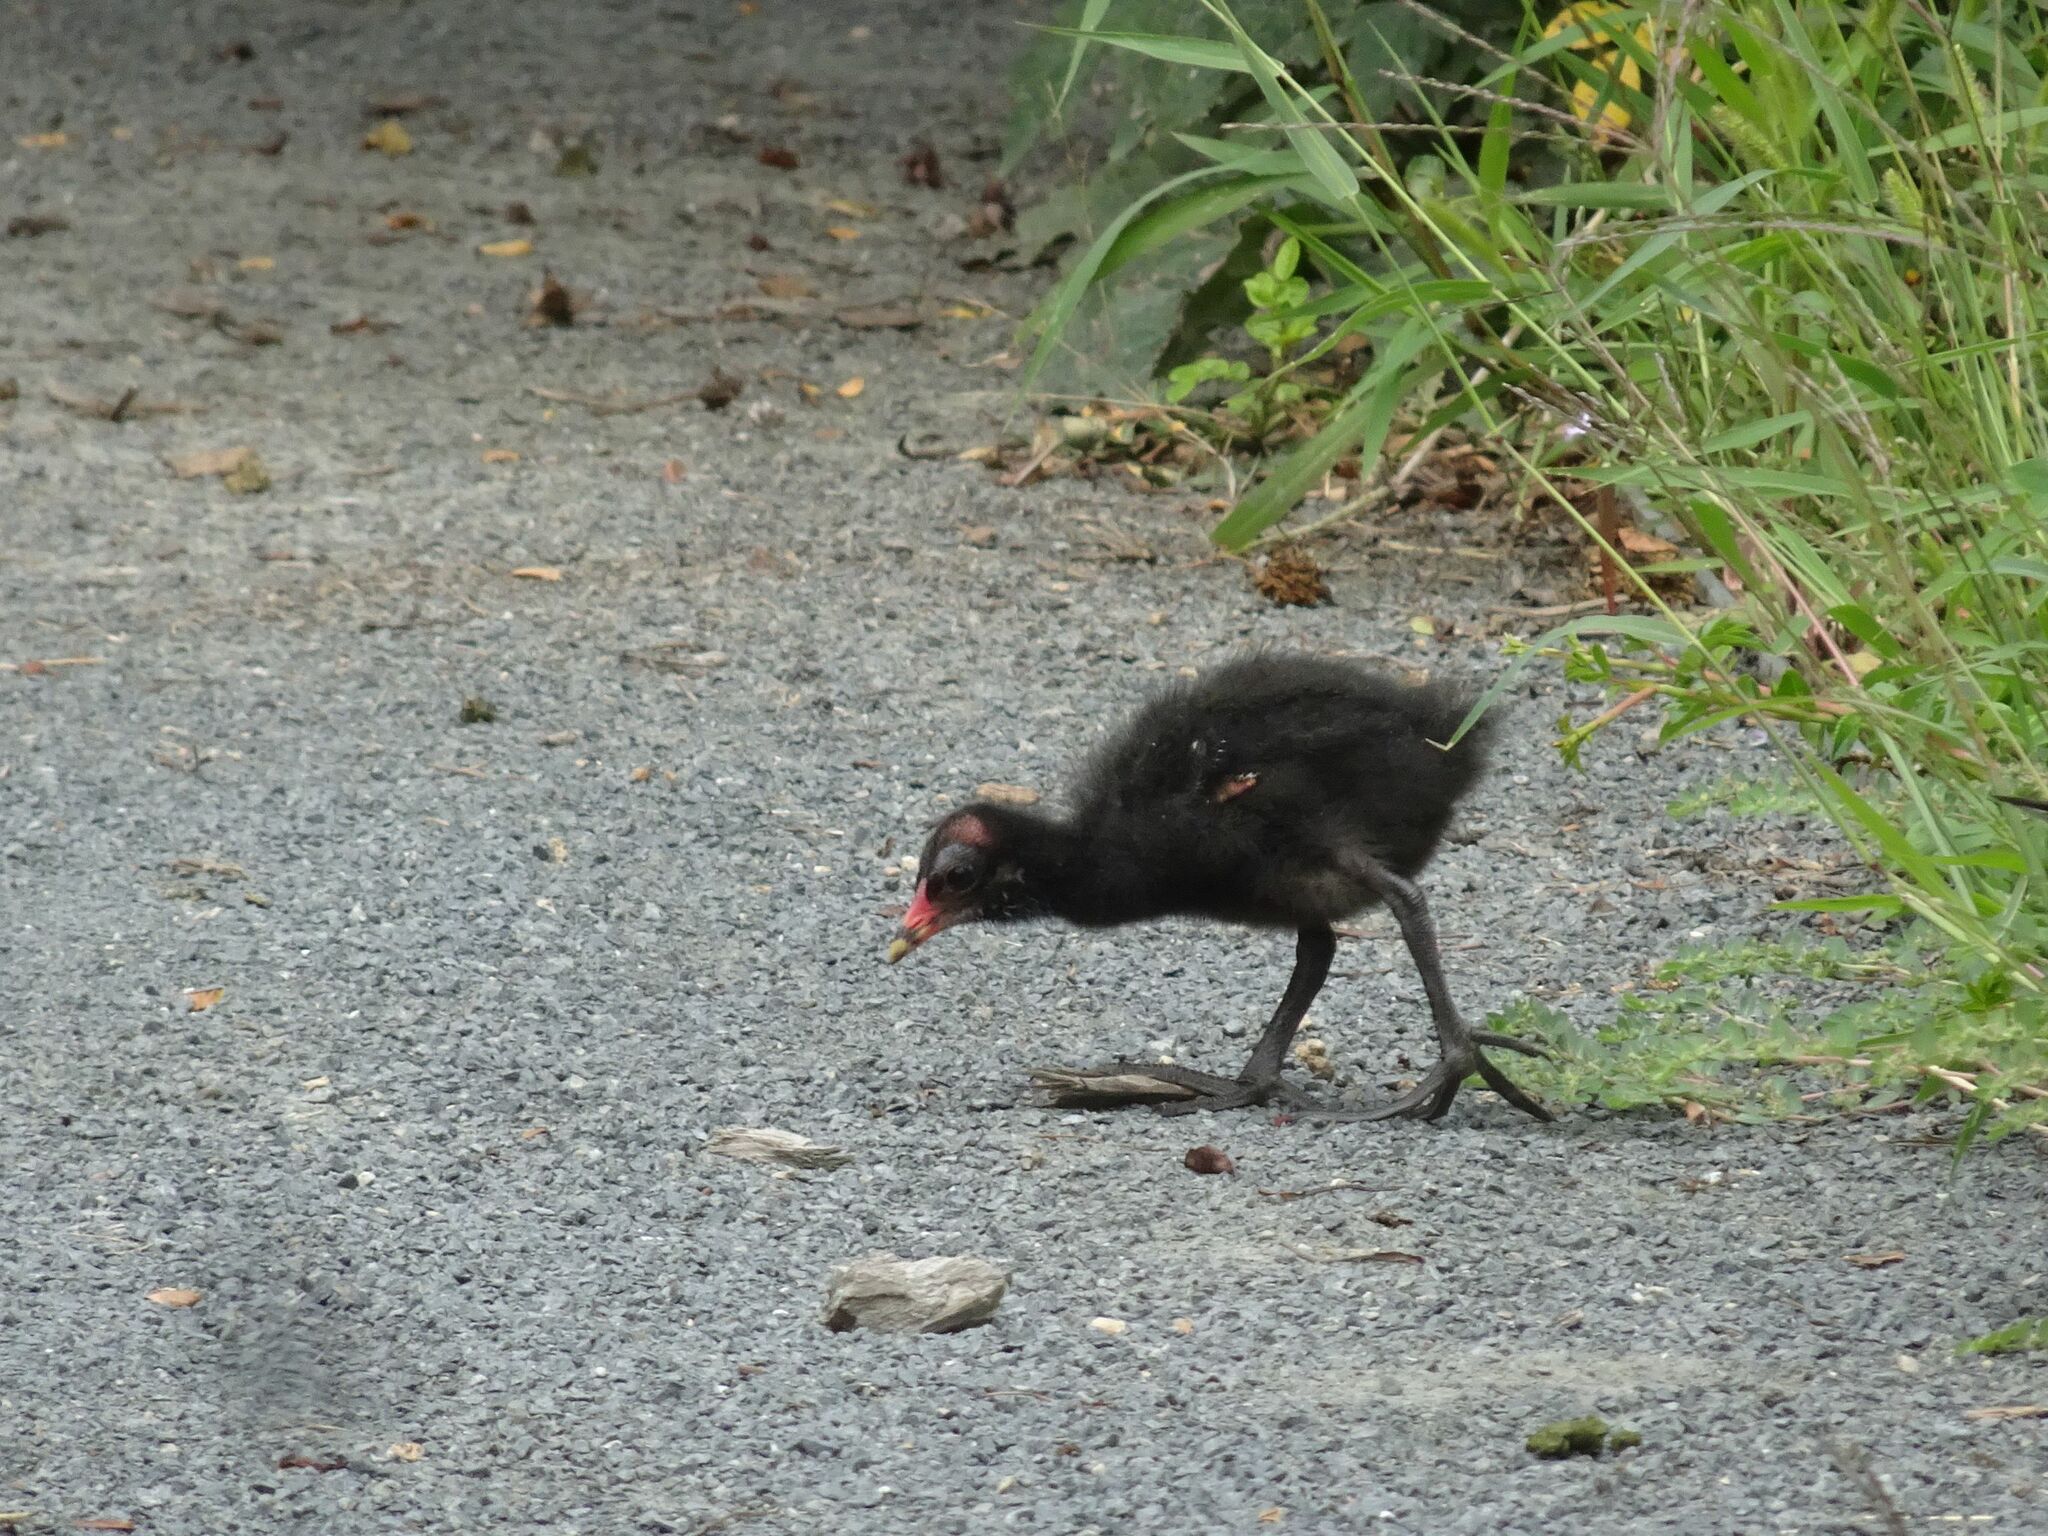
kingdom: Animalia
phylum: Chordata
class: Aves
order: Gruiformes
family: Rallidae
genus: Gallinula
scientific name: Gallinula chloropus
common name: Common moorhen
